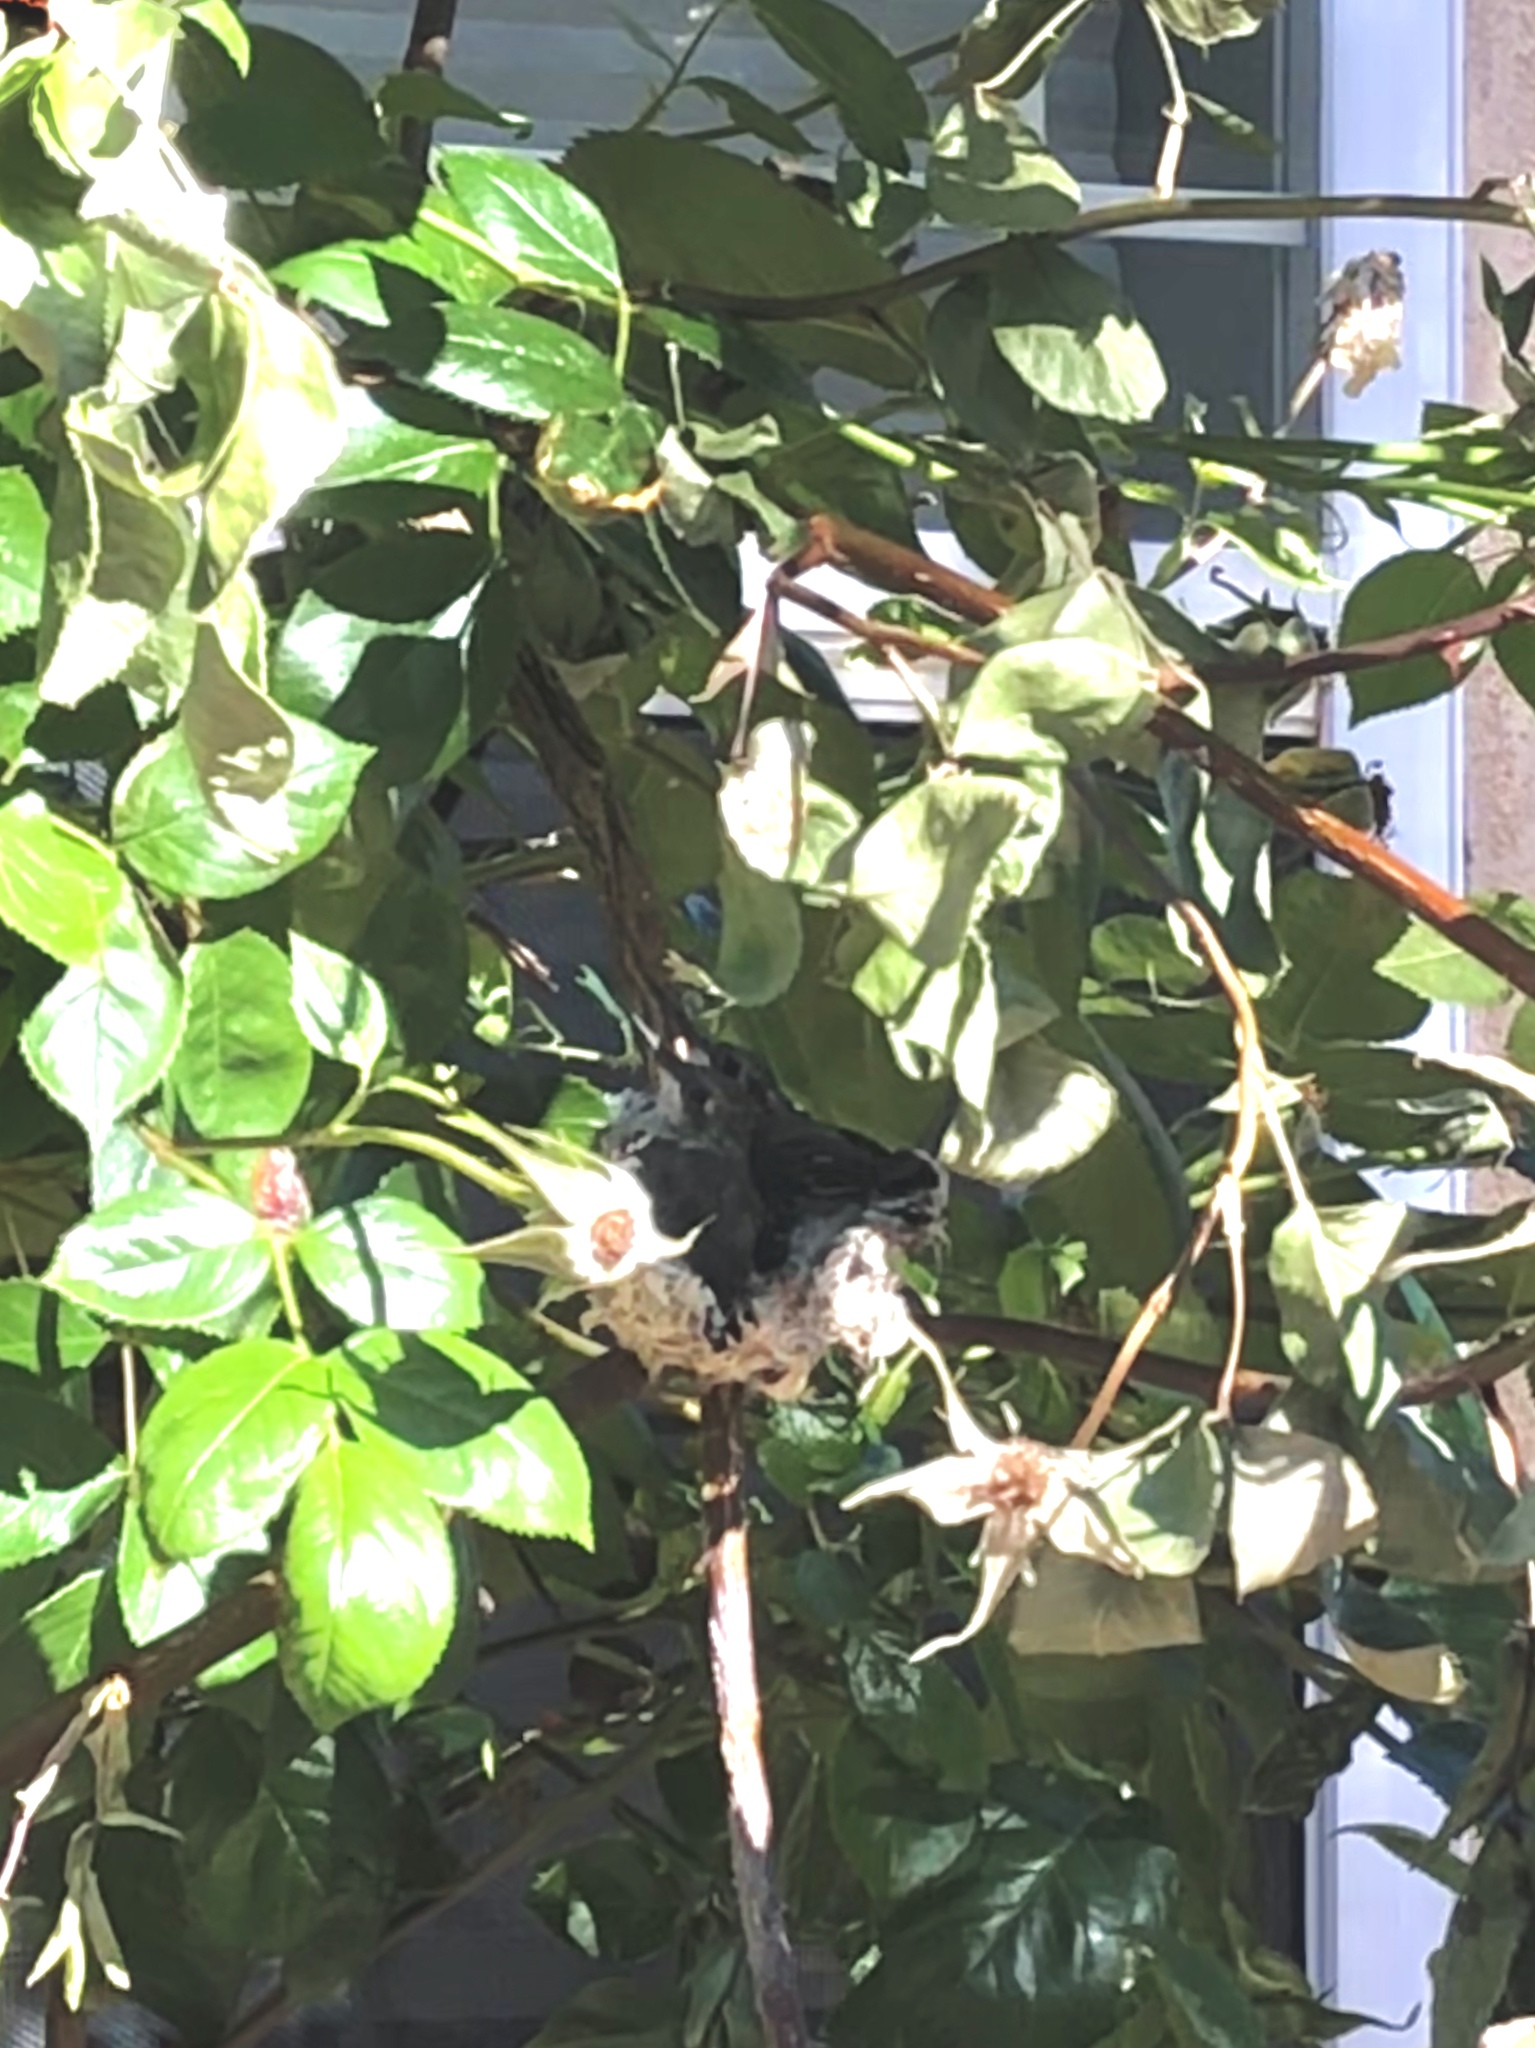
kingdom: Animalia
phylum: Chordata
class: Aves
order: Apodiformes
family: Trochilidae
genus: Archilochus
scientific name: Archilochus alexandri
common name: Black-chinned hummingbird
